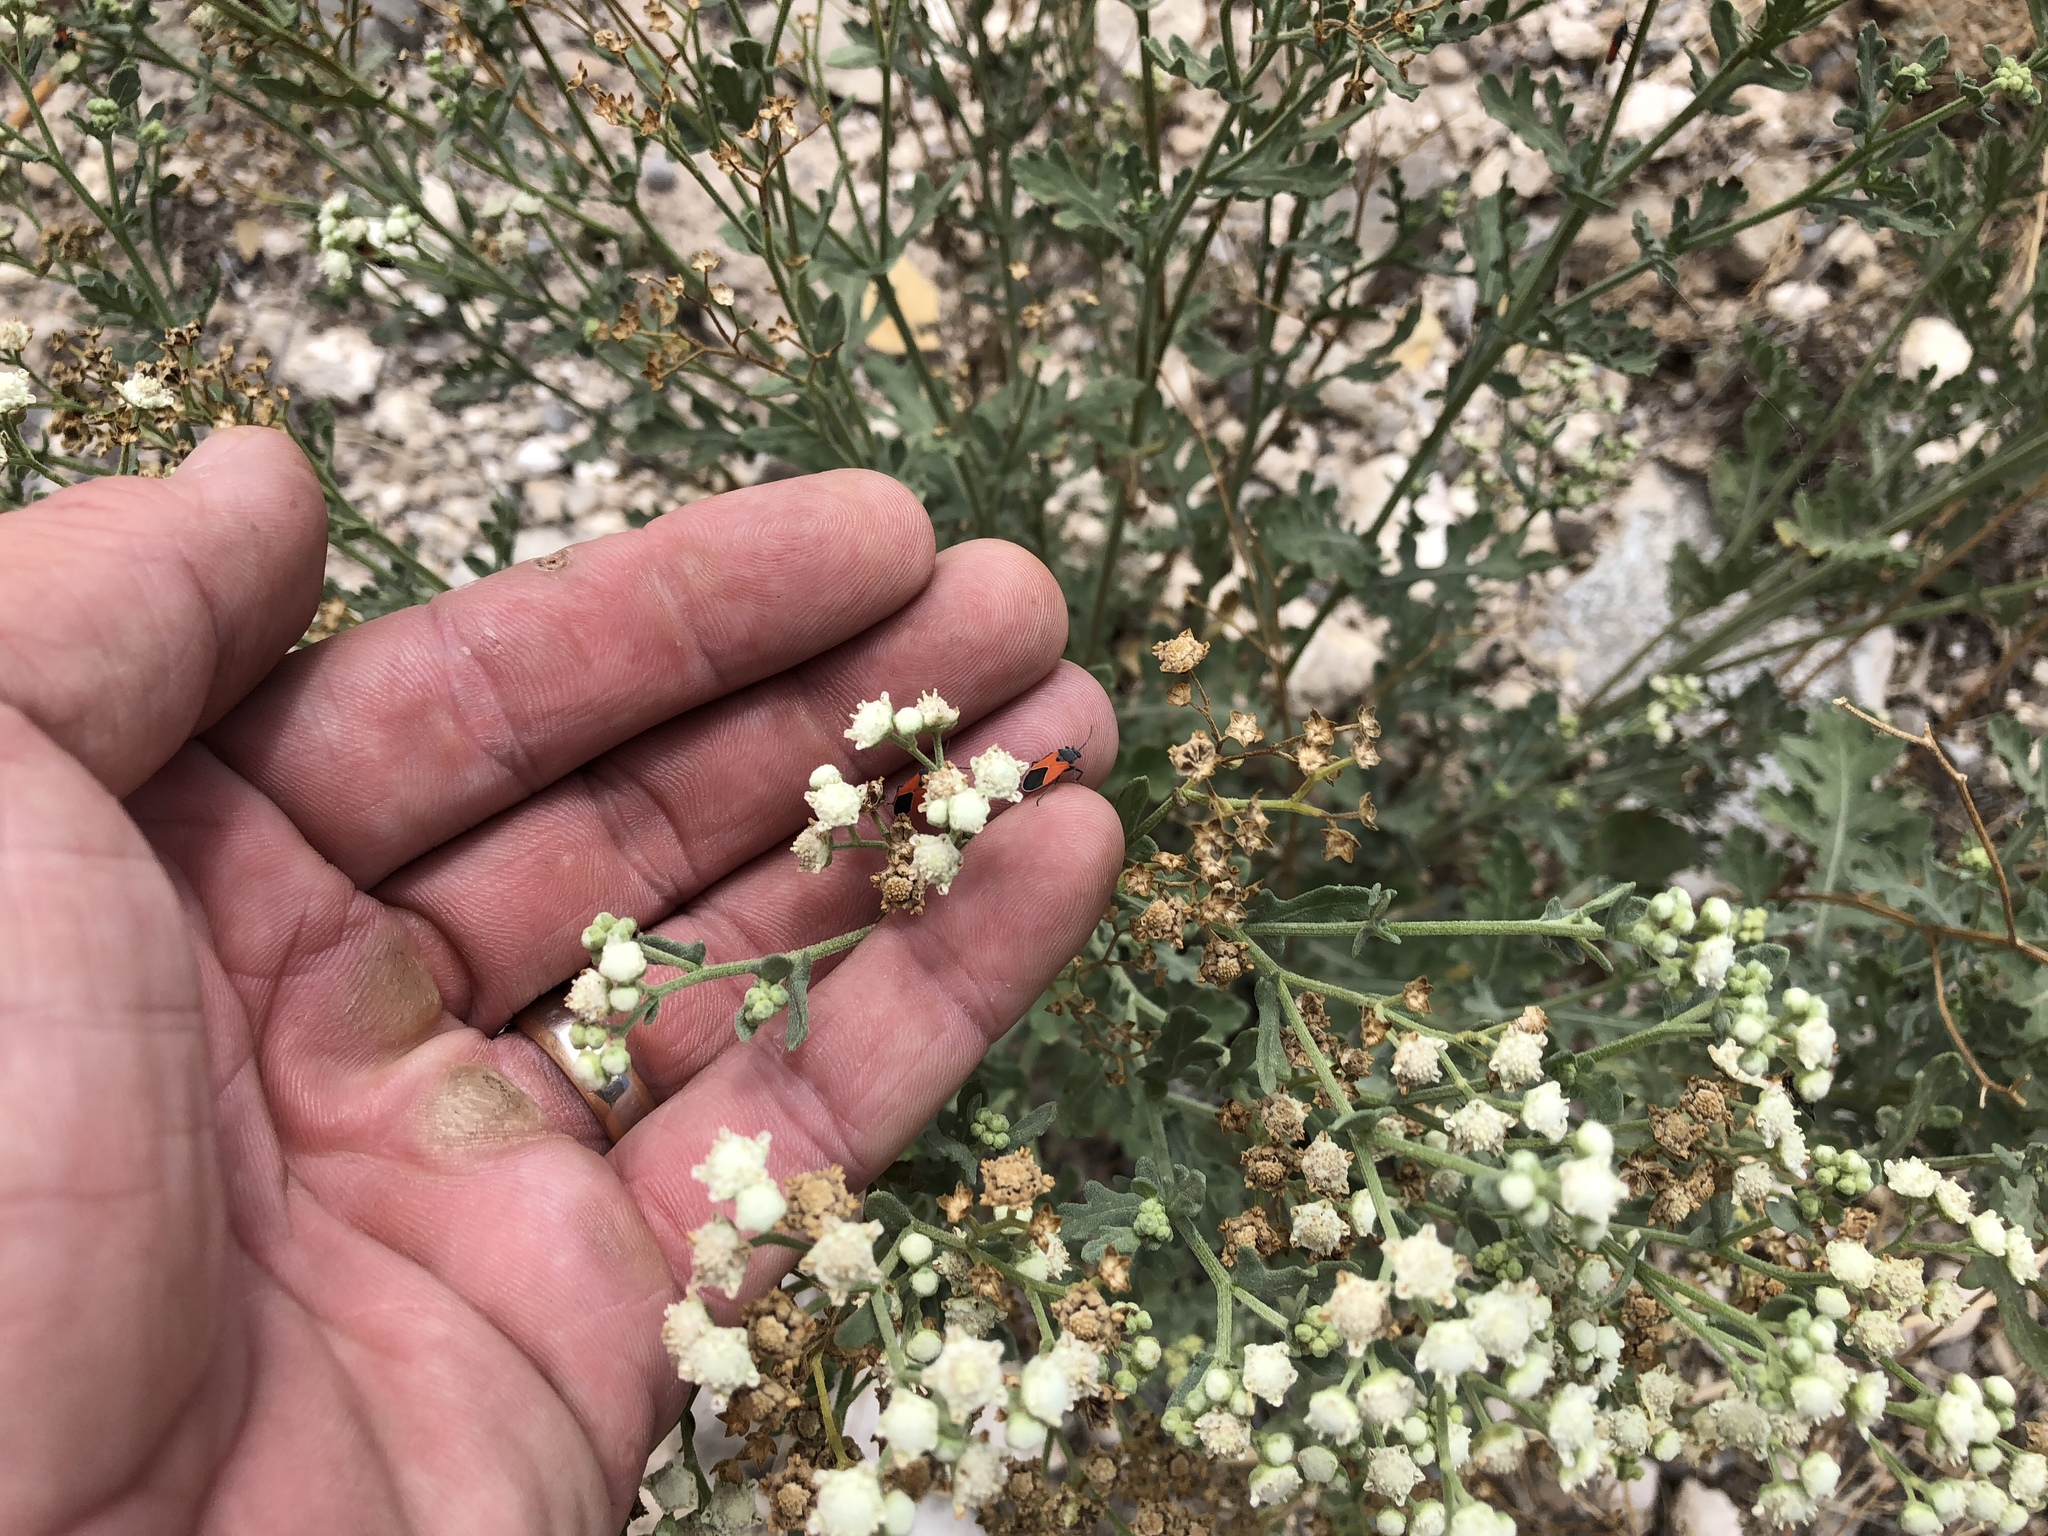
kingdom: Plantae
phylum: Tracheophyta
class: Magnoliopsida
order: Asterales
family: Asteraceae
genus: Parthenium
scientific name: Parthenium incanum
